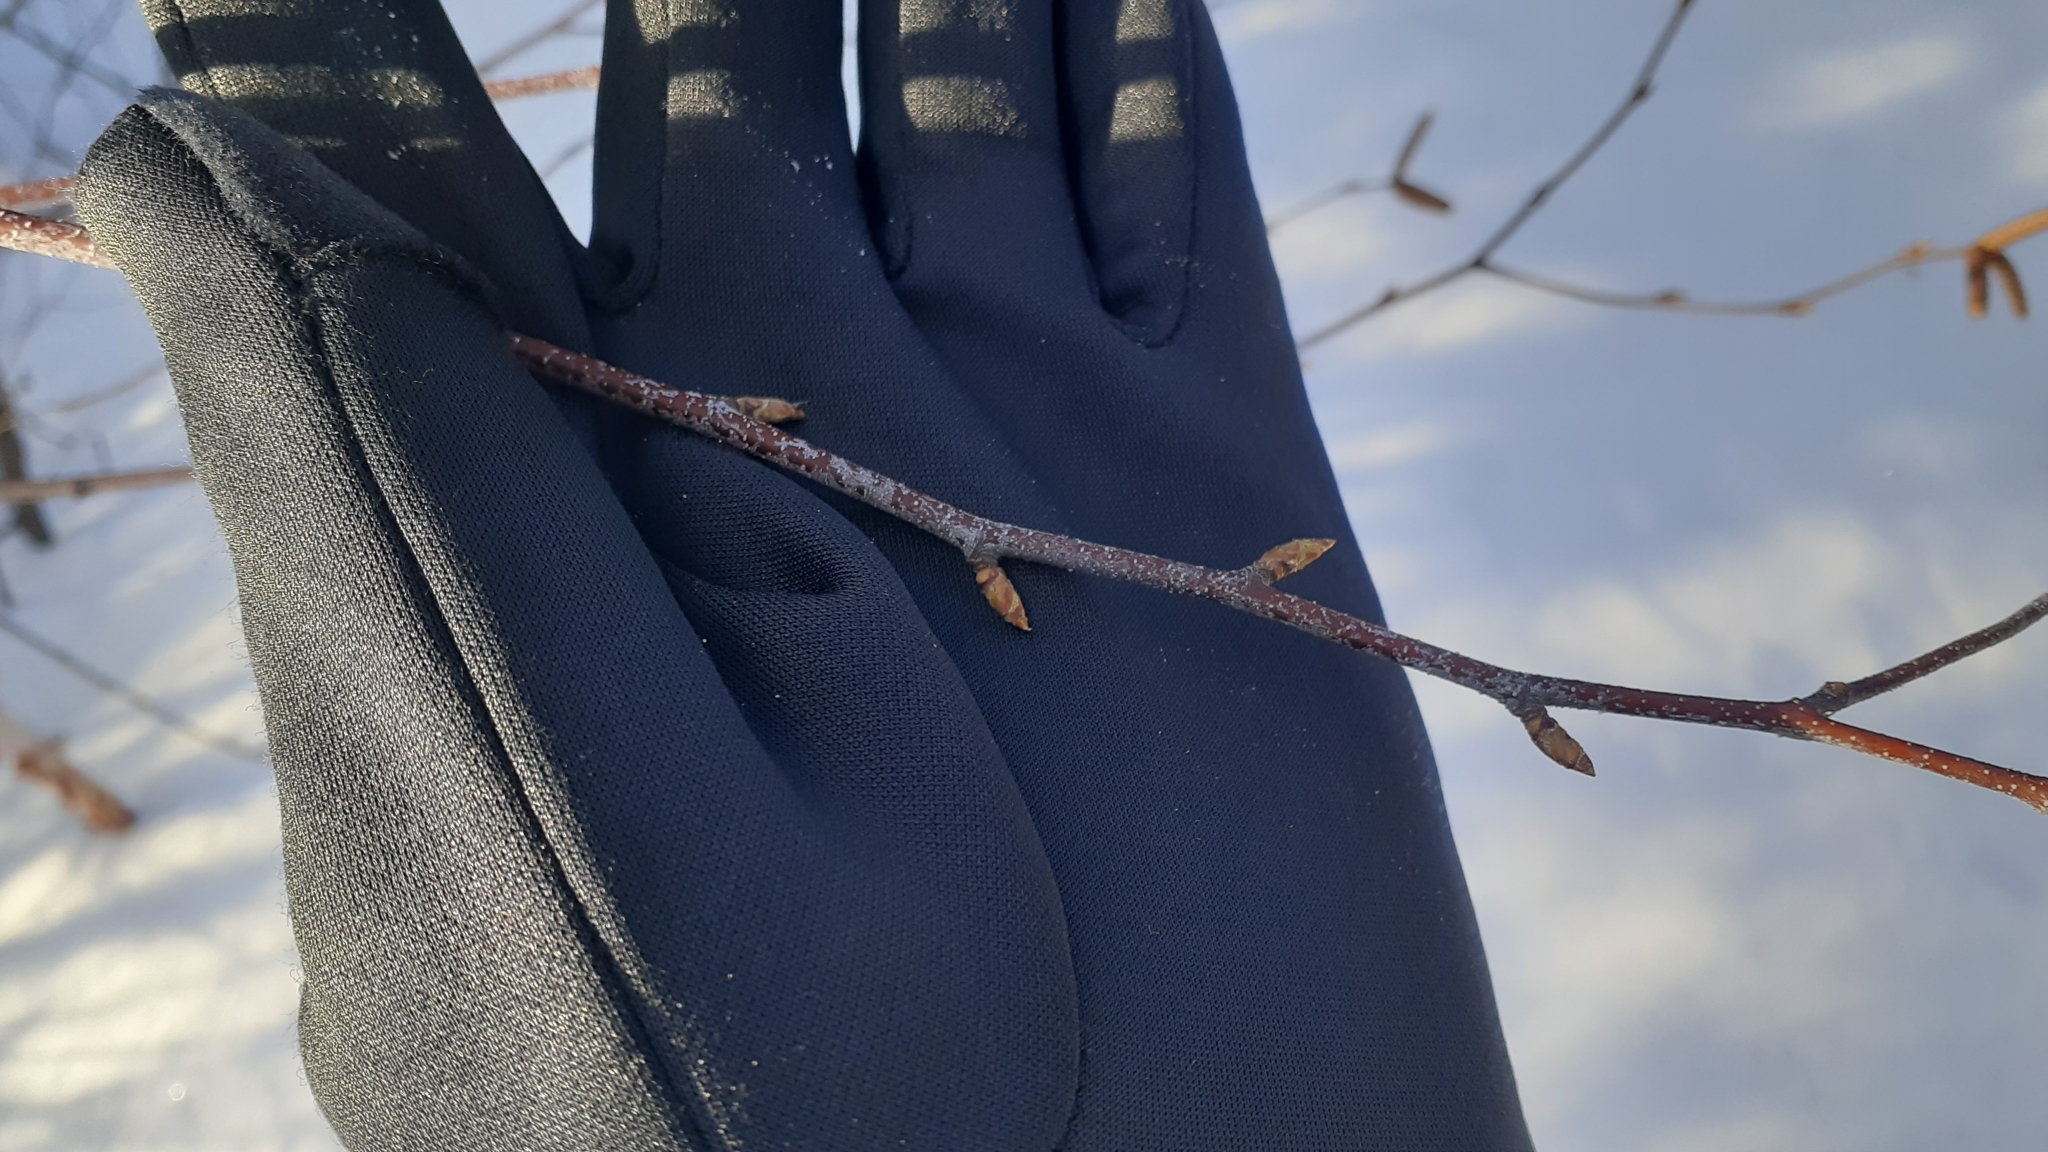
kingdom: Plantae
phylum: Tracheophyta
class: Magnoliopsida
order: Fagales
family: Betulaceae
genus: Betula
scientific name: Betula papyrifera
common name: Paper birch
